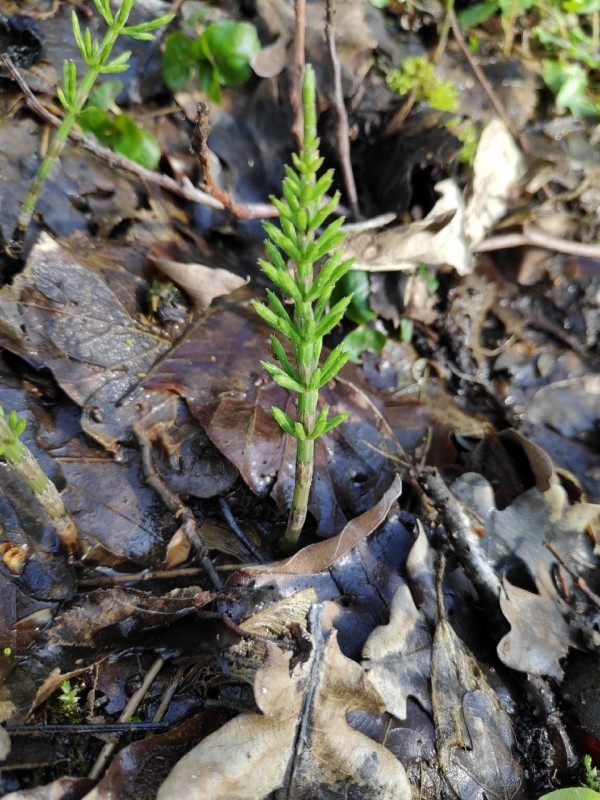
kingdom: Plantae
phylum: Tracheophyta
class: Polypodiopsida
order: Equisetales
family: Equisetaceae
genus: Equisetum
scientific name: Equisetum arvense
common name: Field horsetail
